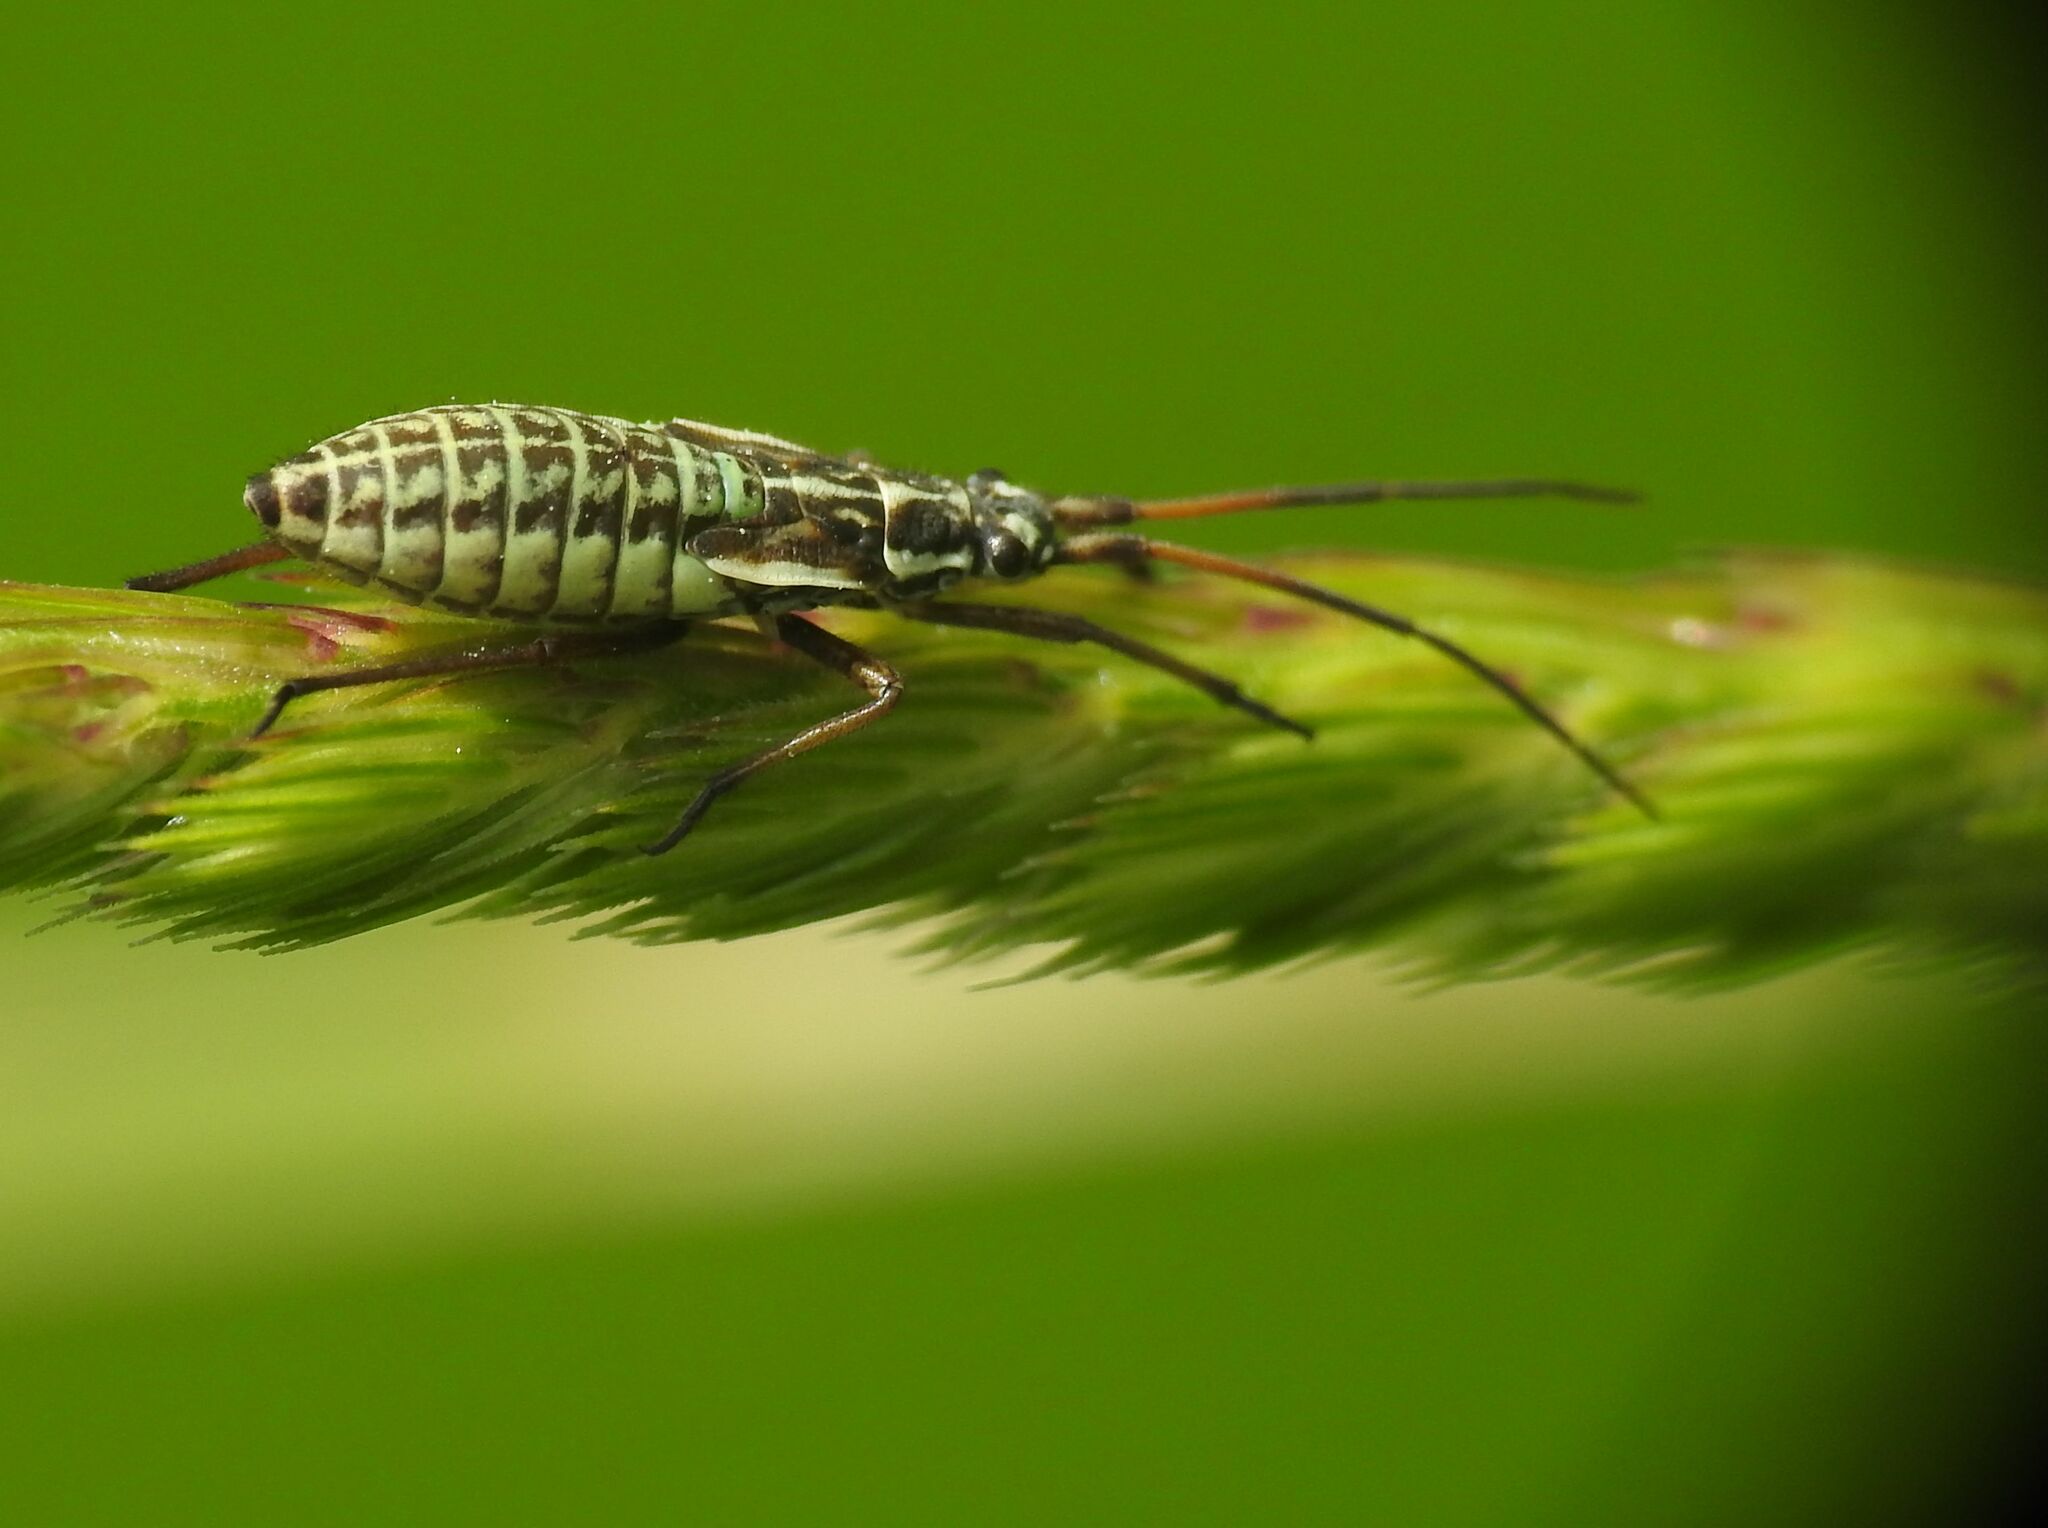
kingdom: Animalia
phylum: Arthropoda
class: Insecta
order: Hemiptera
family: Miridae
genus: Leptopterna
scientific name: Leptopterna dolabrata
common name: Meadow plant bug
